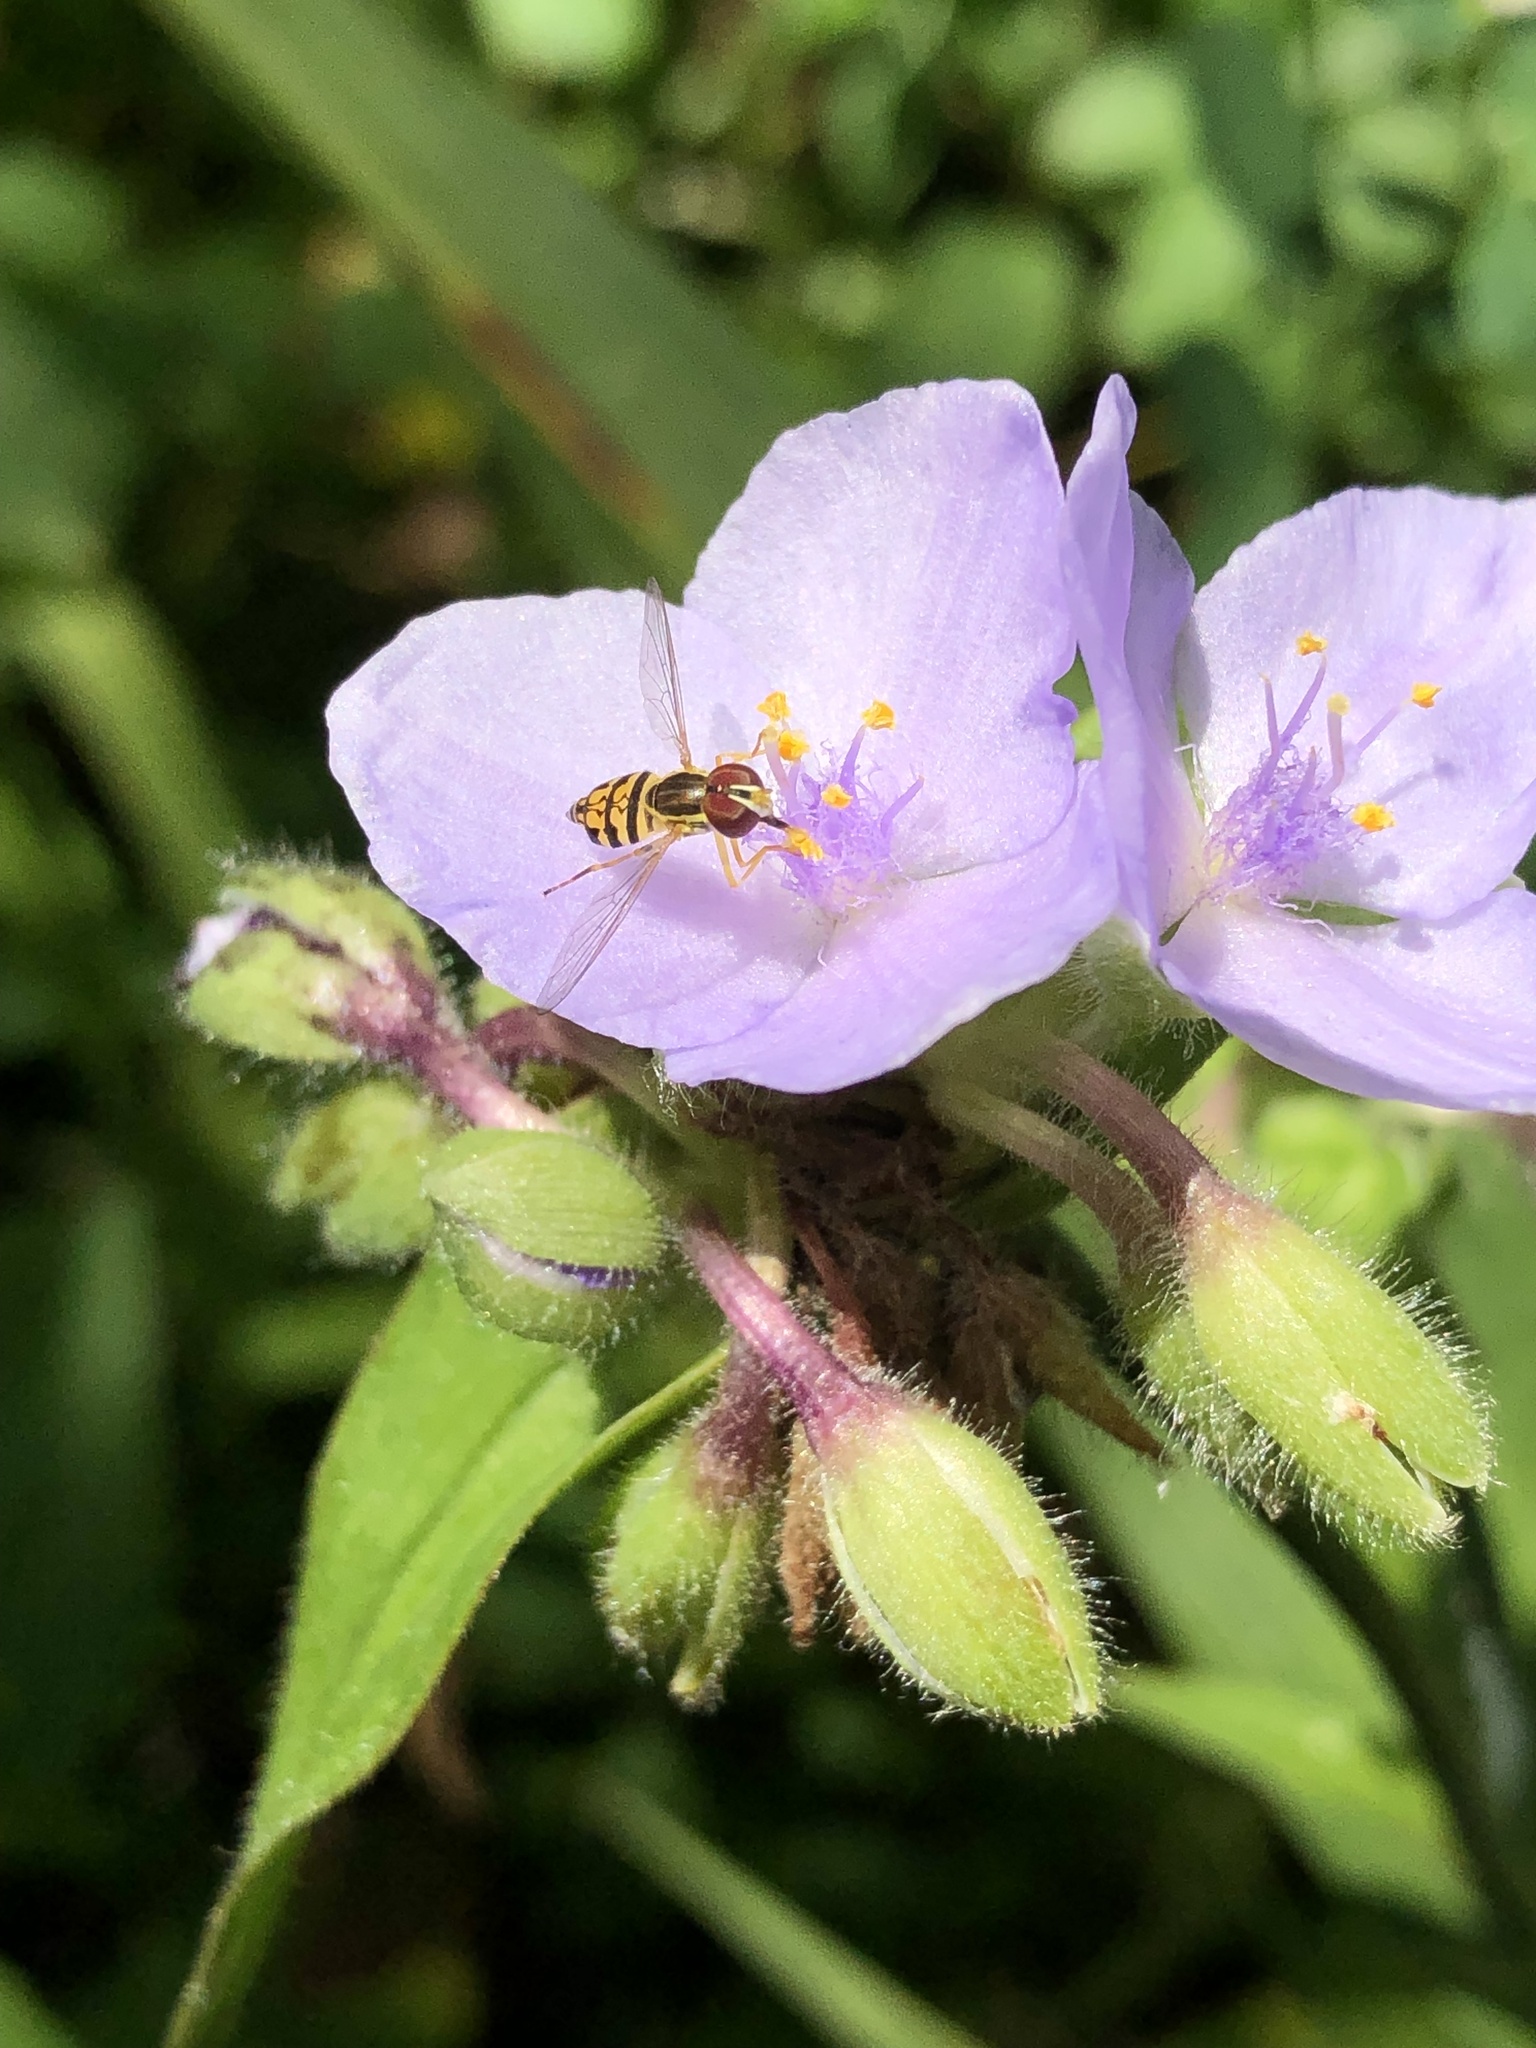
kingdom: Animalia
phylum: Arthropoda
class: Insecta
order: Diptera
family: Syrphidae
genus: Toxomerus
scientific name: Toxomerus geminatus
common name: Eastern calligrapher
